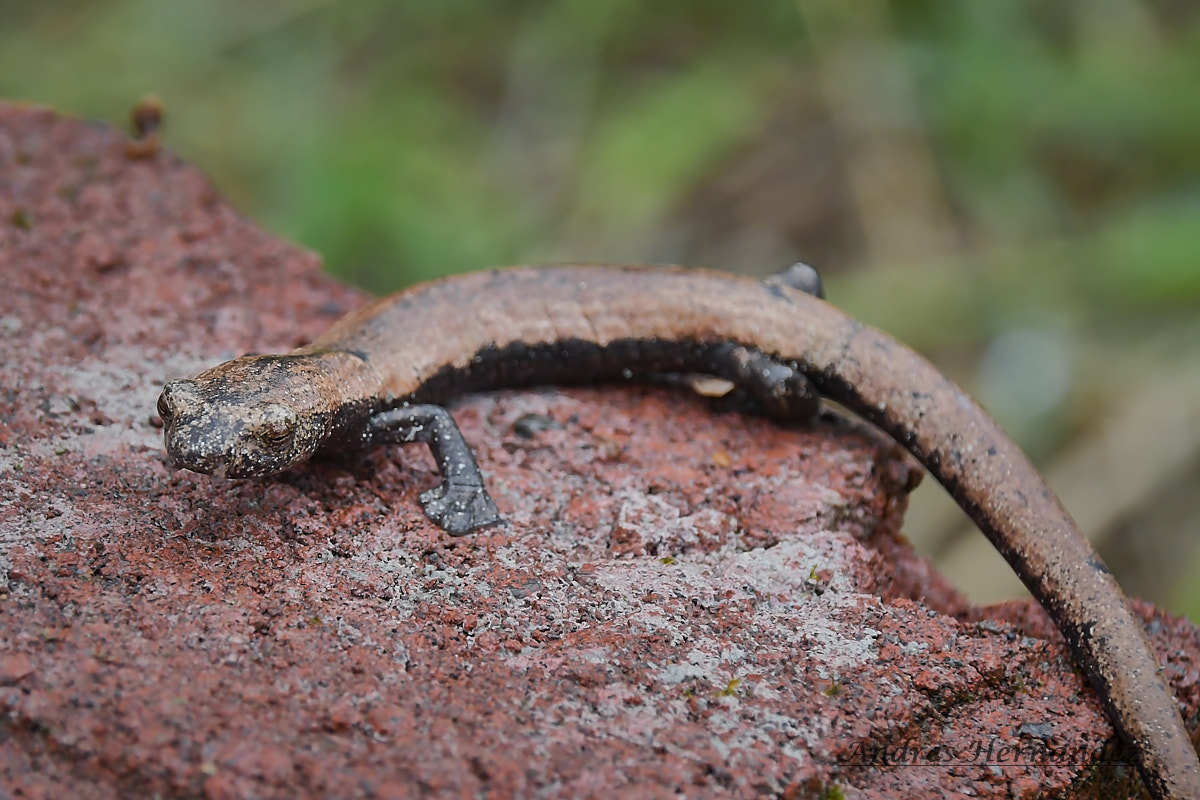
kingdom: Animalia
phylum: Chordata
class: Amphibia
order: Caudata
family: Plethodontidae
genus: Bolitoglossa
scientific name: Bolitoglossa lignicolor
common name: Camron mushroomtongue salamander
